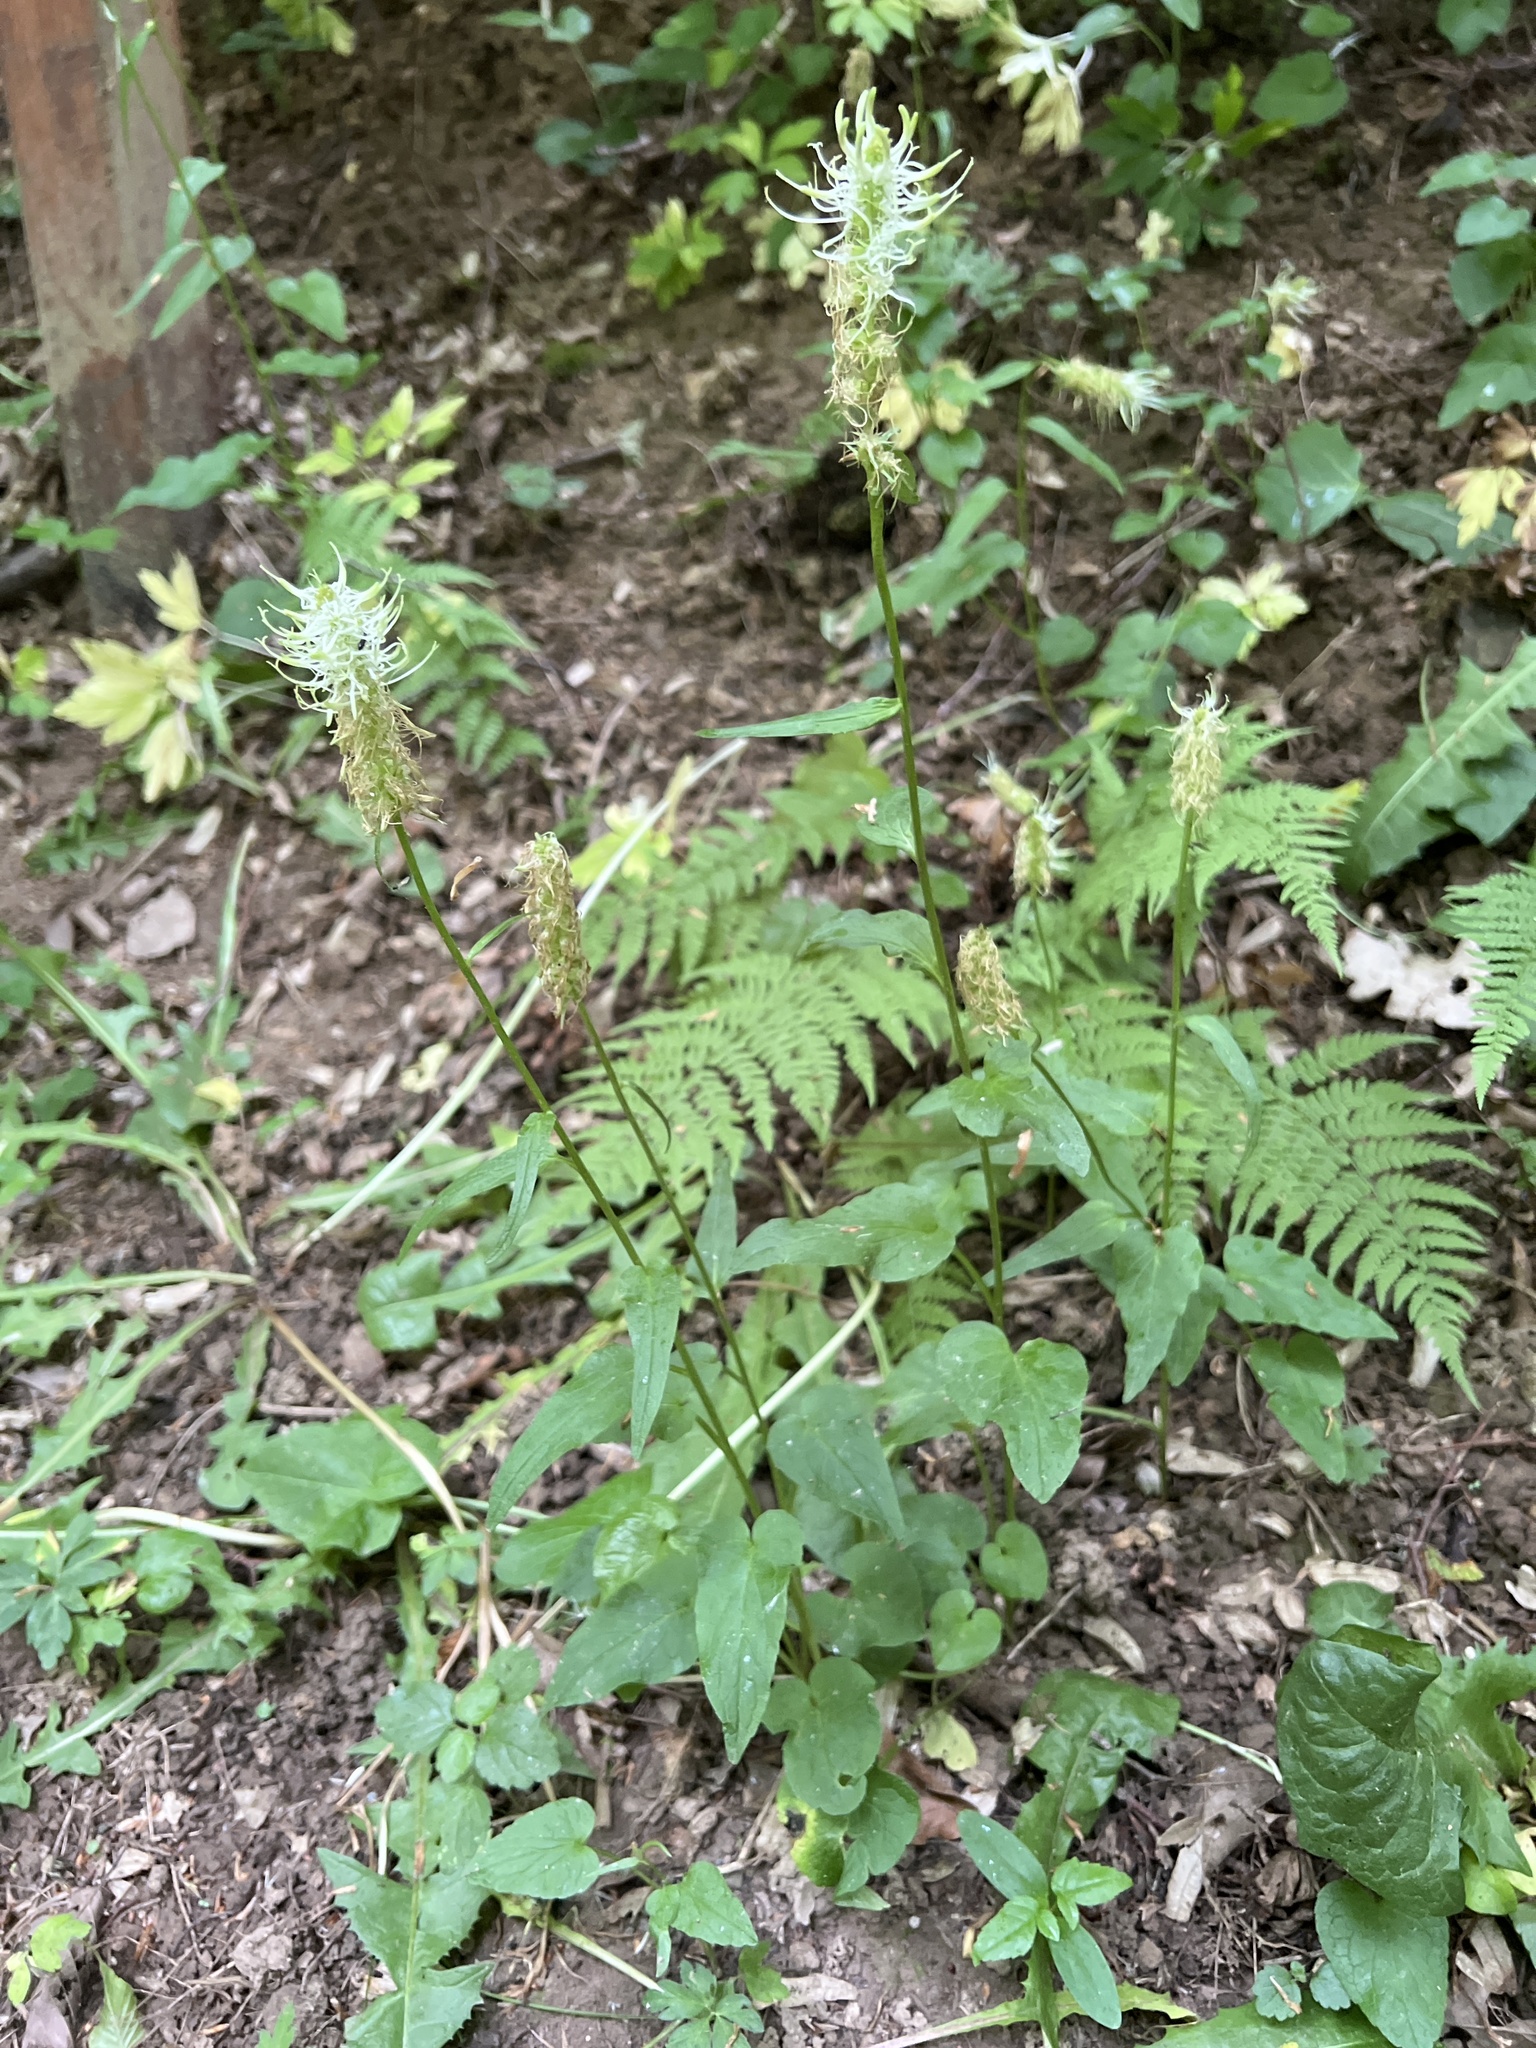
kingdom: Plantae
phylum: Tracheophyta
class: Magnoliopsida
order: Asterales
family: Campanulaceae
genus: Phyteuma
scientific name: Phyteuma spicatum
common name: Spiked rampion
